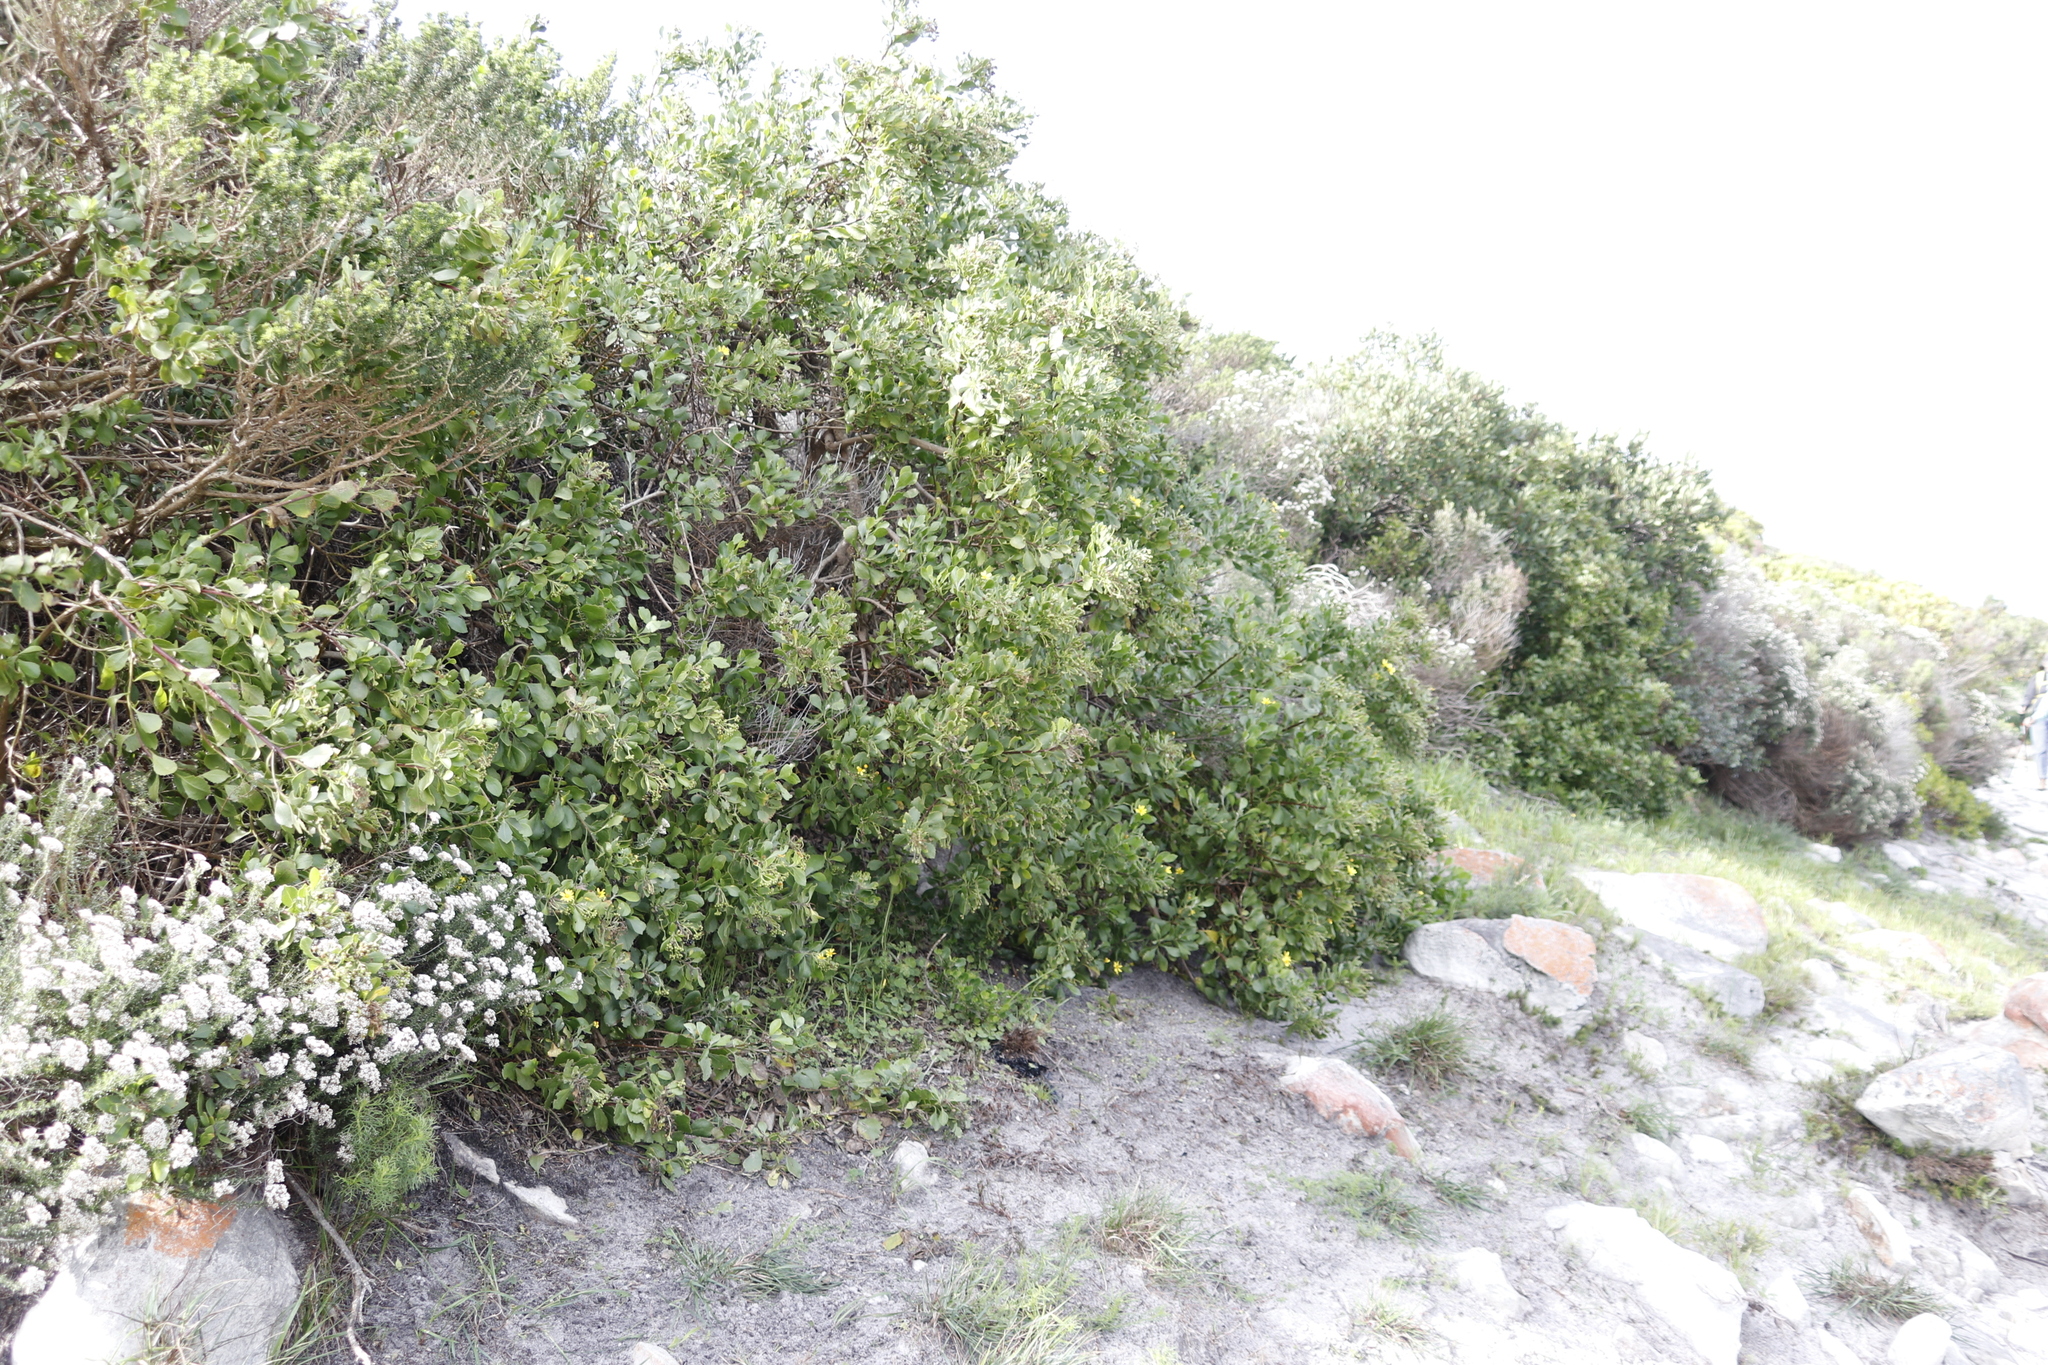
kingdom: Plantae
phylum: Tracheophyta
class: Magnoliopsida
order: Asterales
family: Asteraceae
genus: Osteospermum
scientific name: Osteospermum moniliferum
